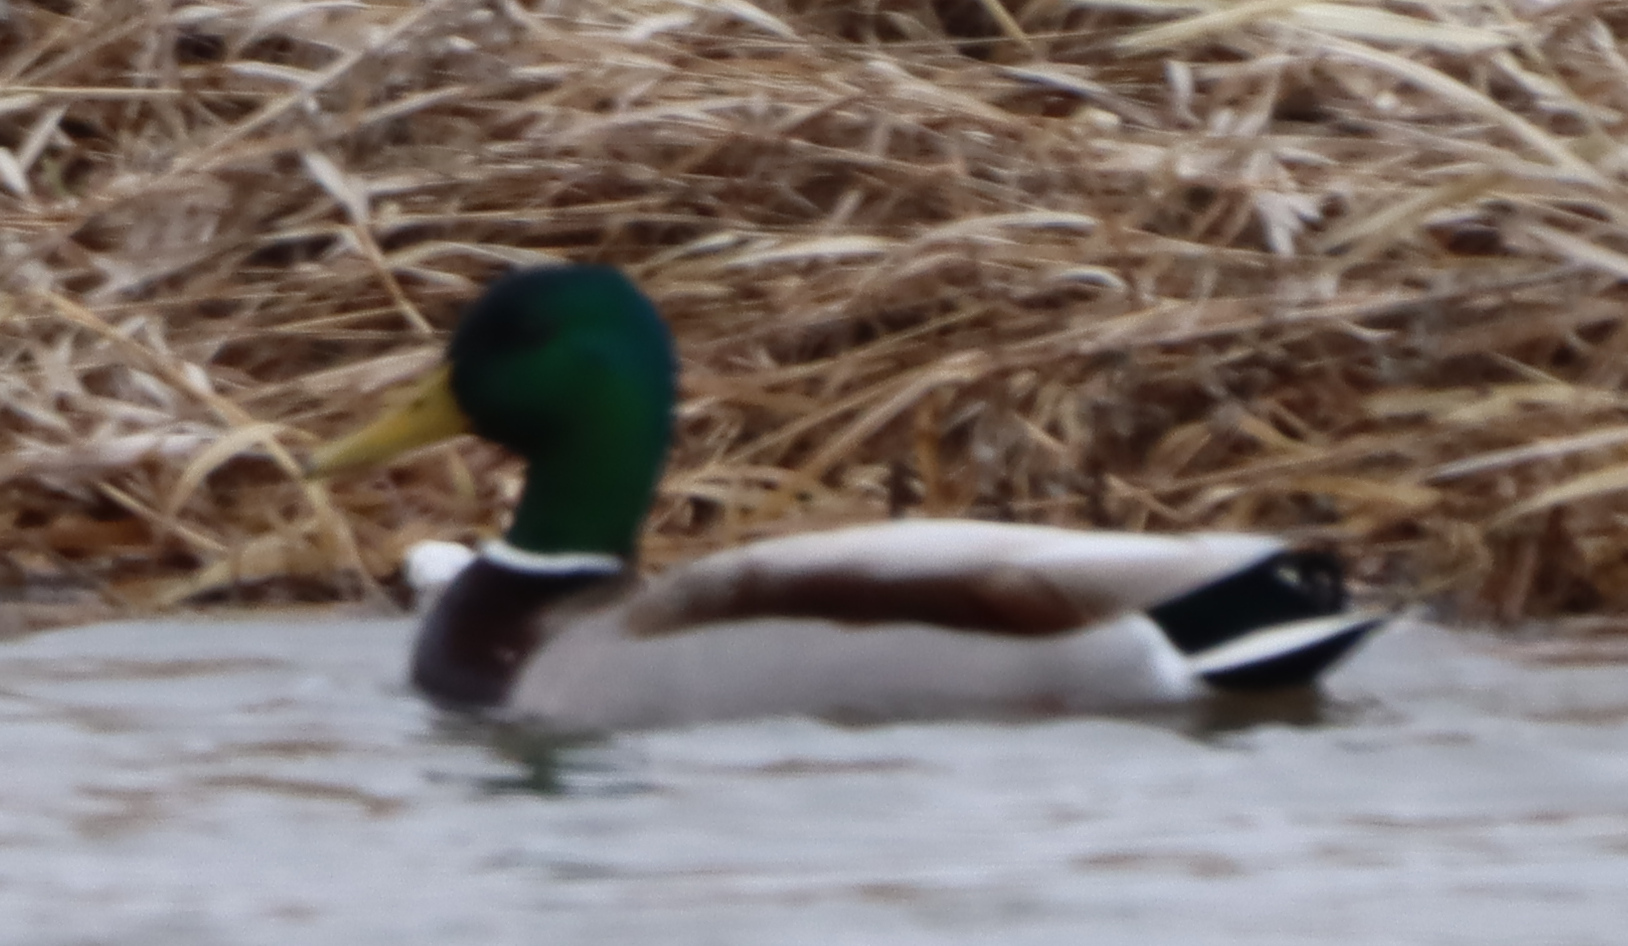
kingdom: Animalia
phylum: Chordata
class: Aves
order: Anseriformes
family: Anatidae
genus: Anas
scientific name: Anas platyrhynchos
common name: Mallard
